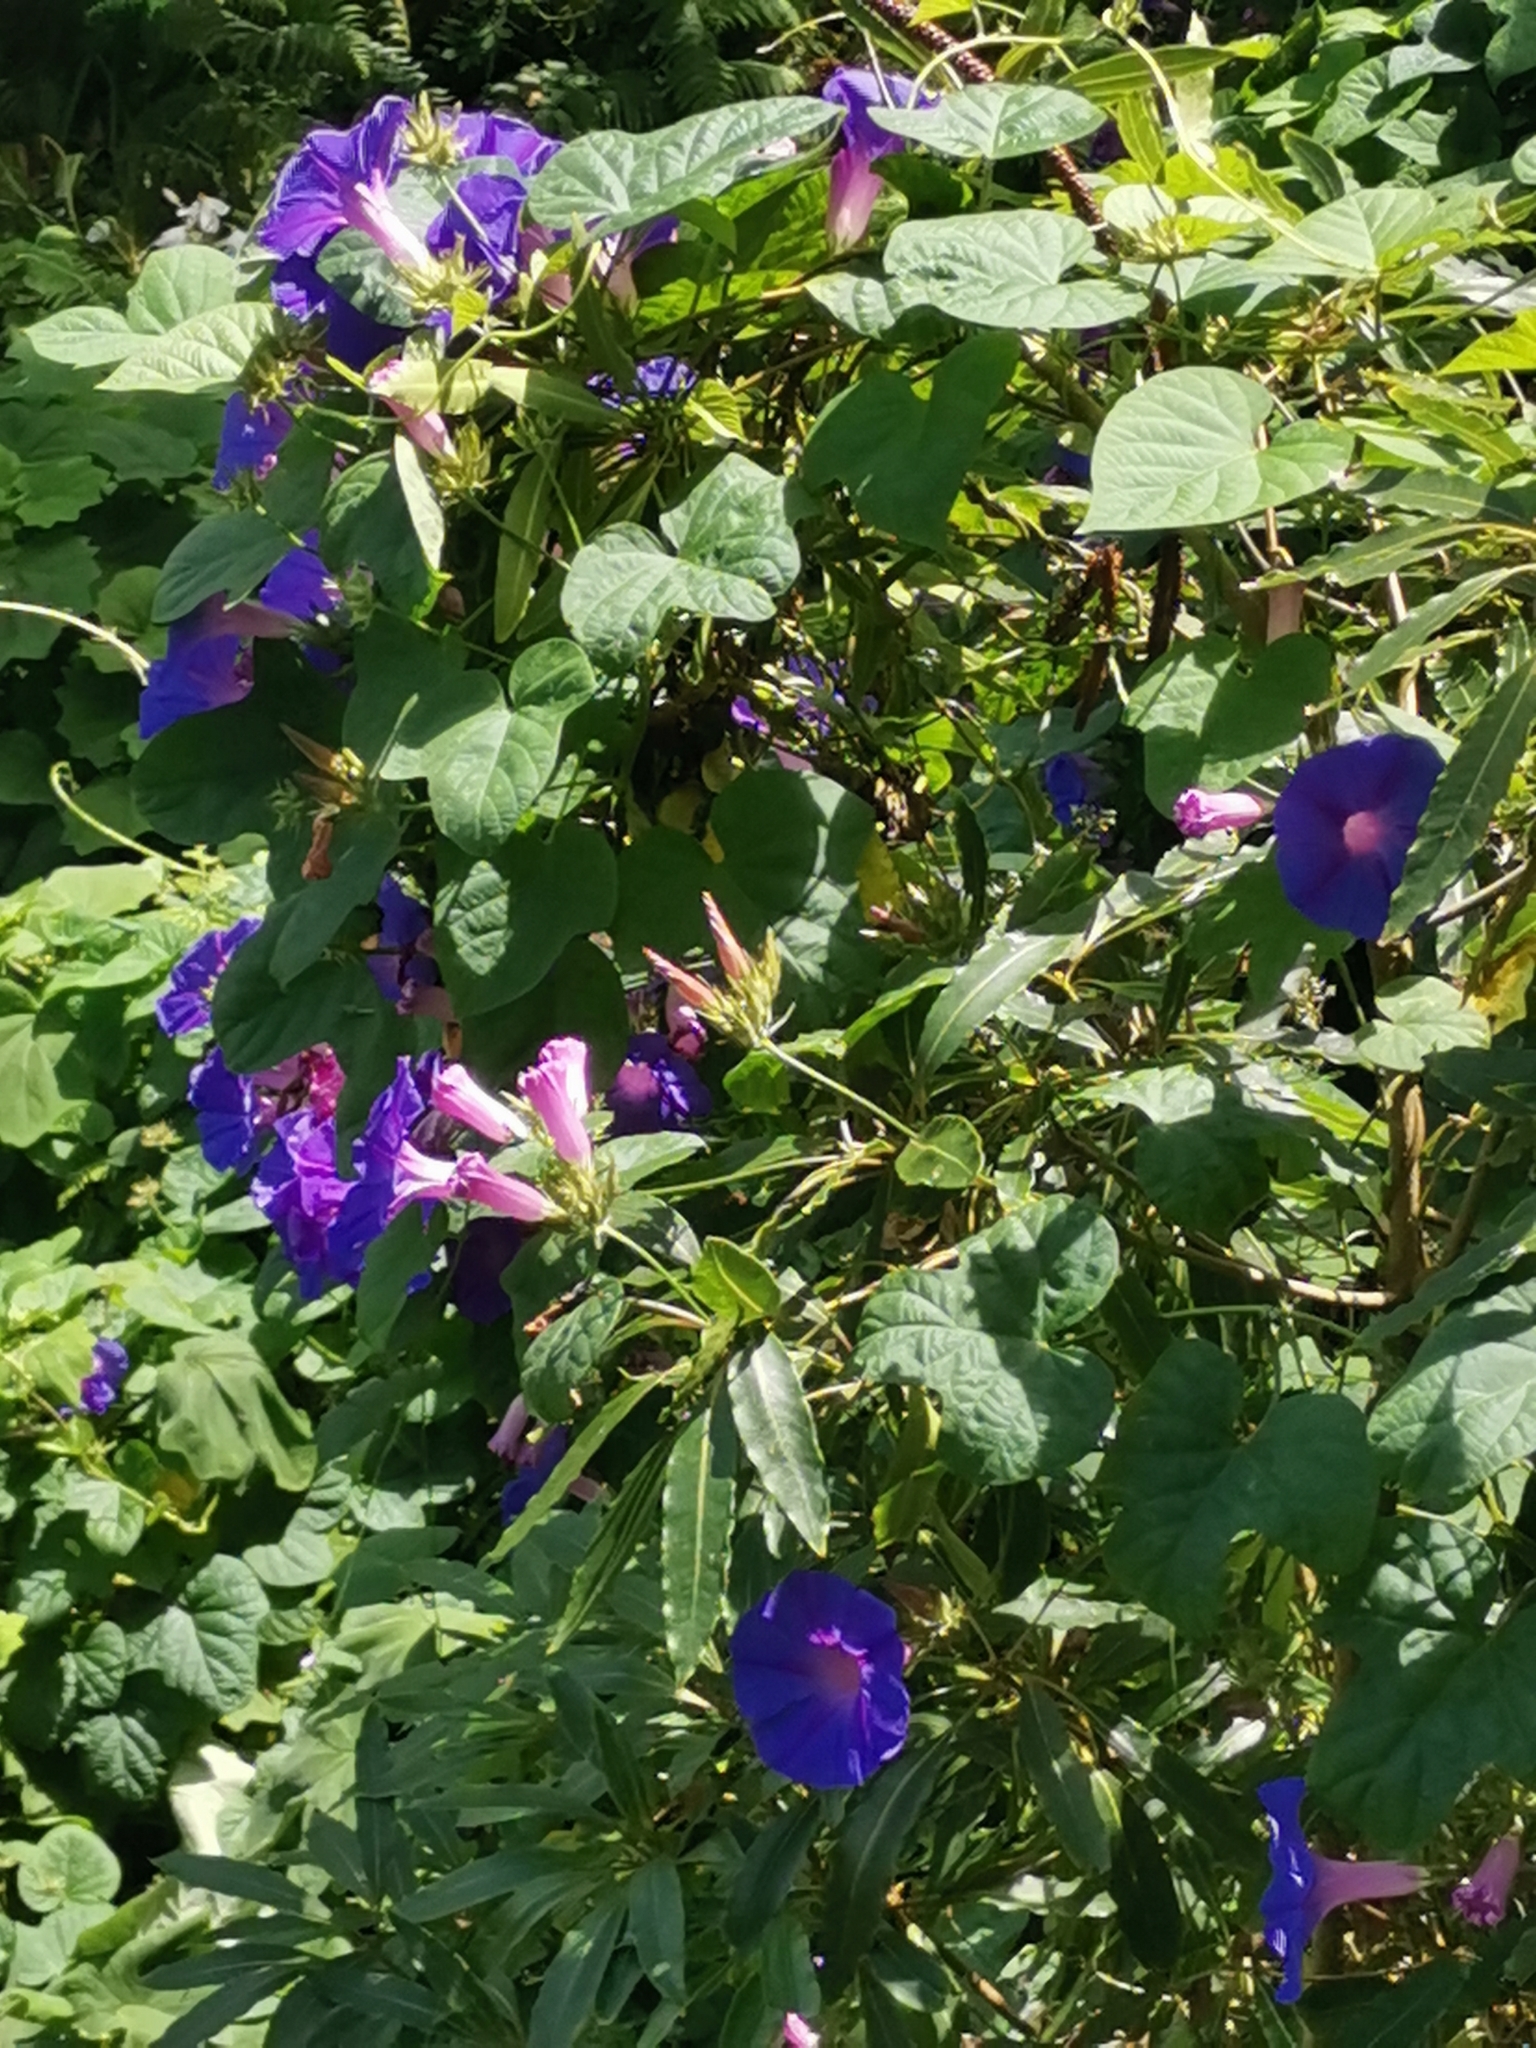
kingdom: Plantae
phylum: Tracheophyta
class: Magnoliopsida
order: Solanales
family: Convolvulaceae
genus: Ipomoea
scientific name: Ipomoea indica
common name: Blue dawnflower
